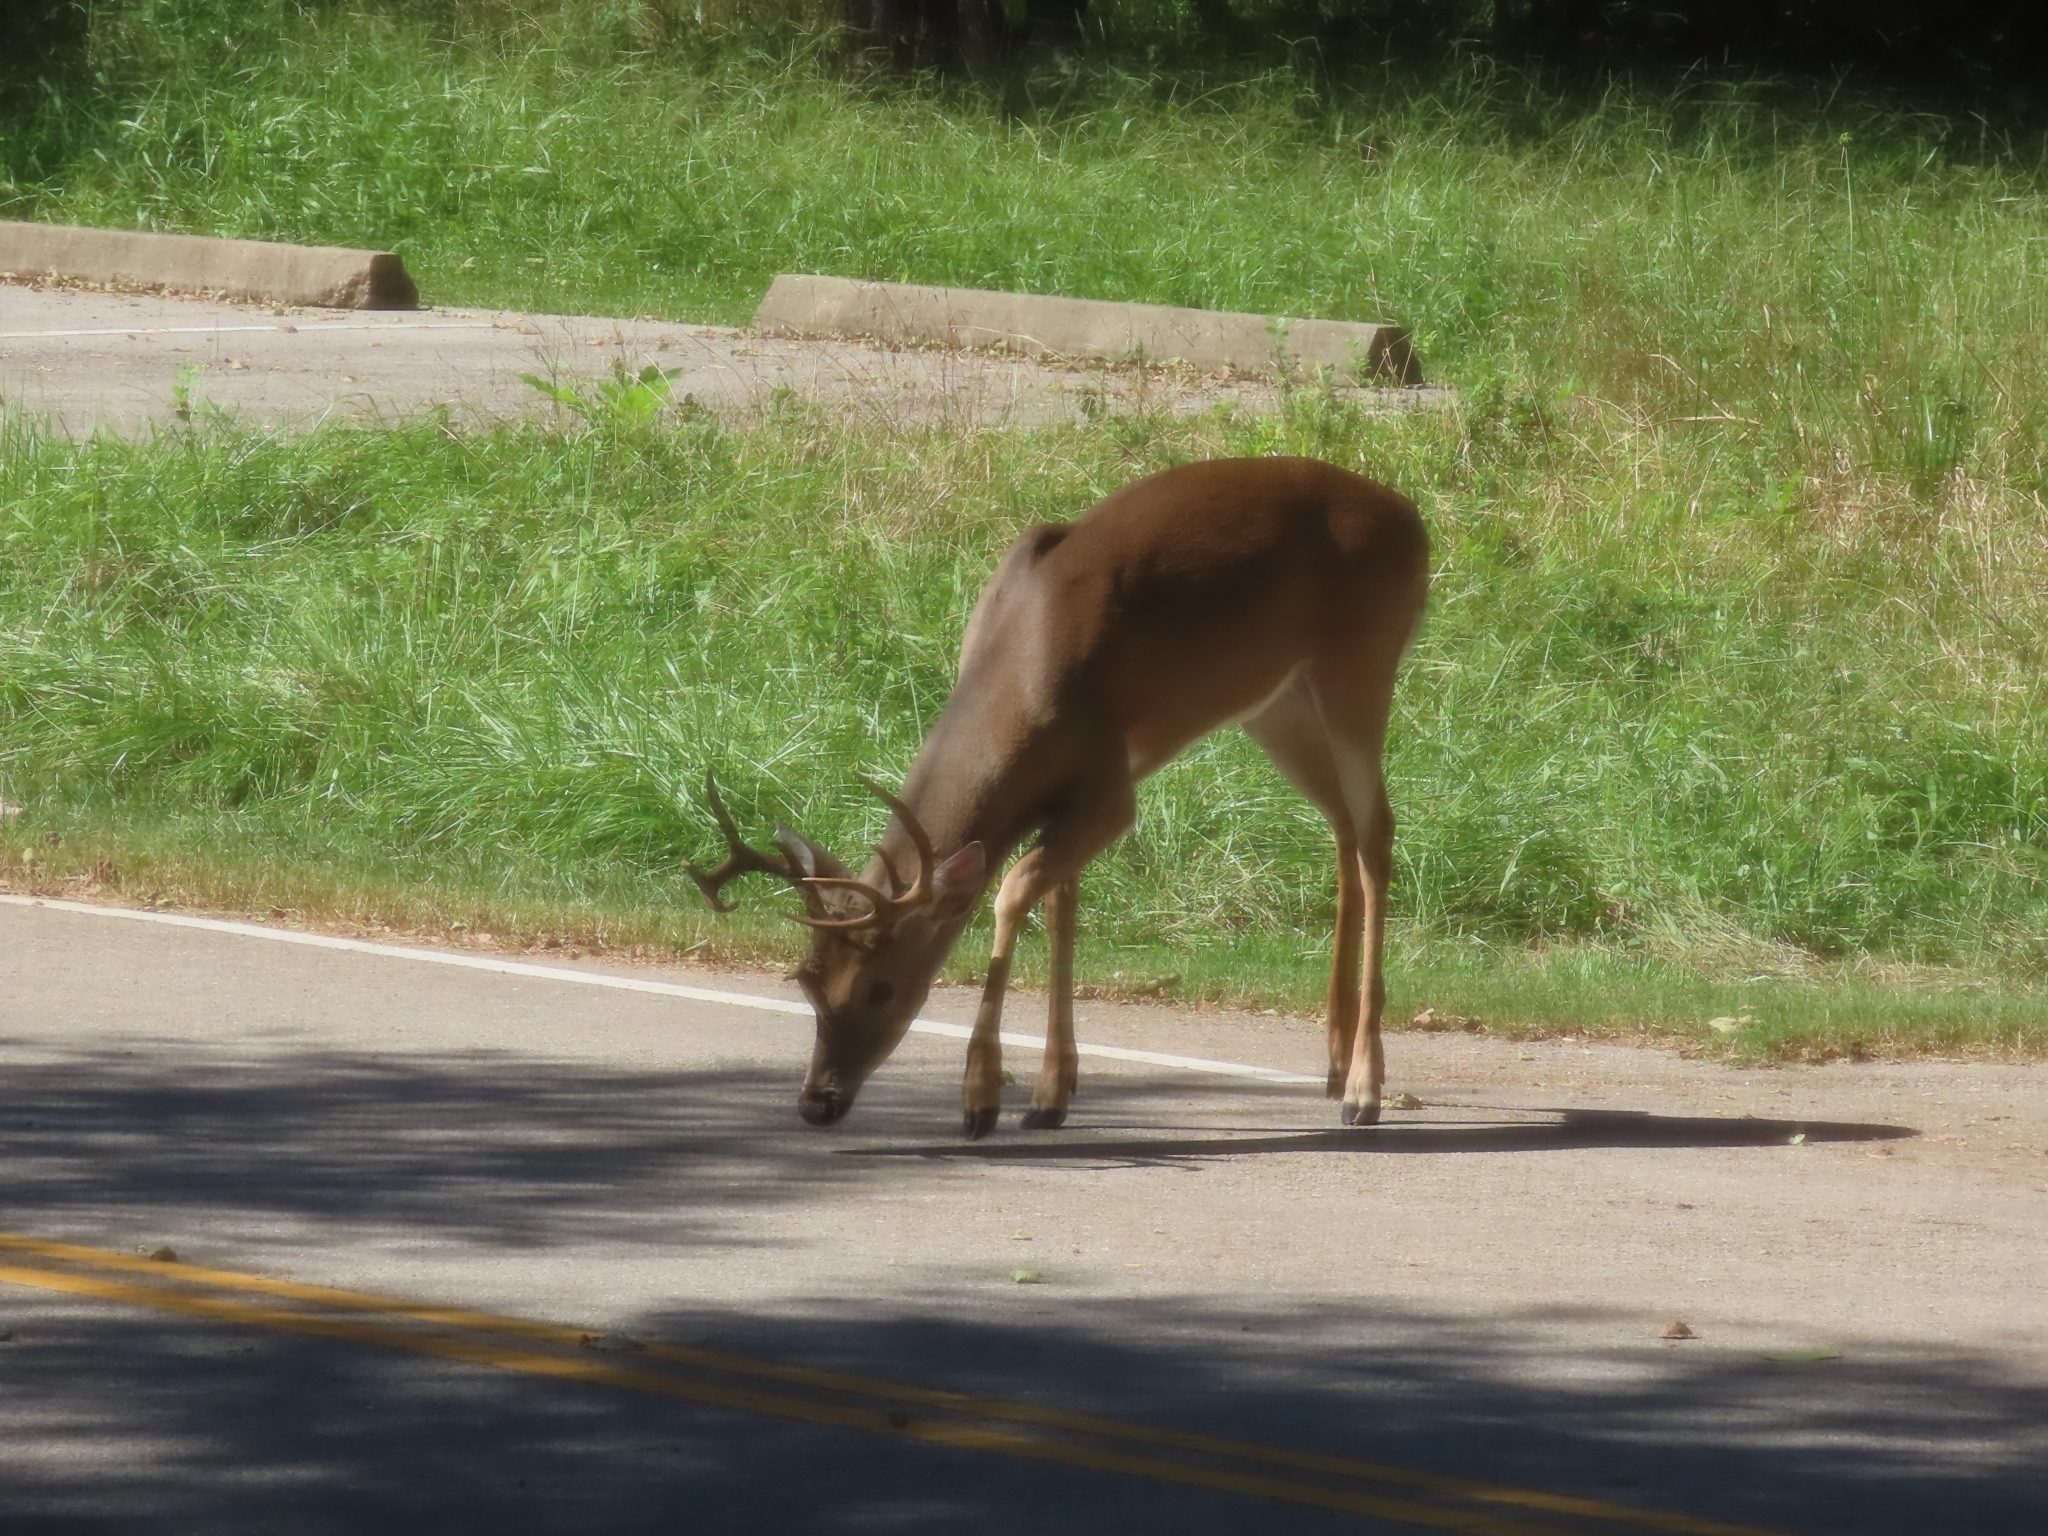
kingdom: Animalia
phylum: Chordata
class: Mammalia
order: Artiodactyla
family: Cervidae
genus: Odocoileus
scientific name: Odocoileus virginianus
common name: White-tailed deer
